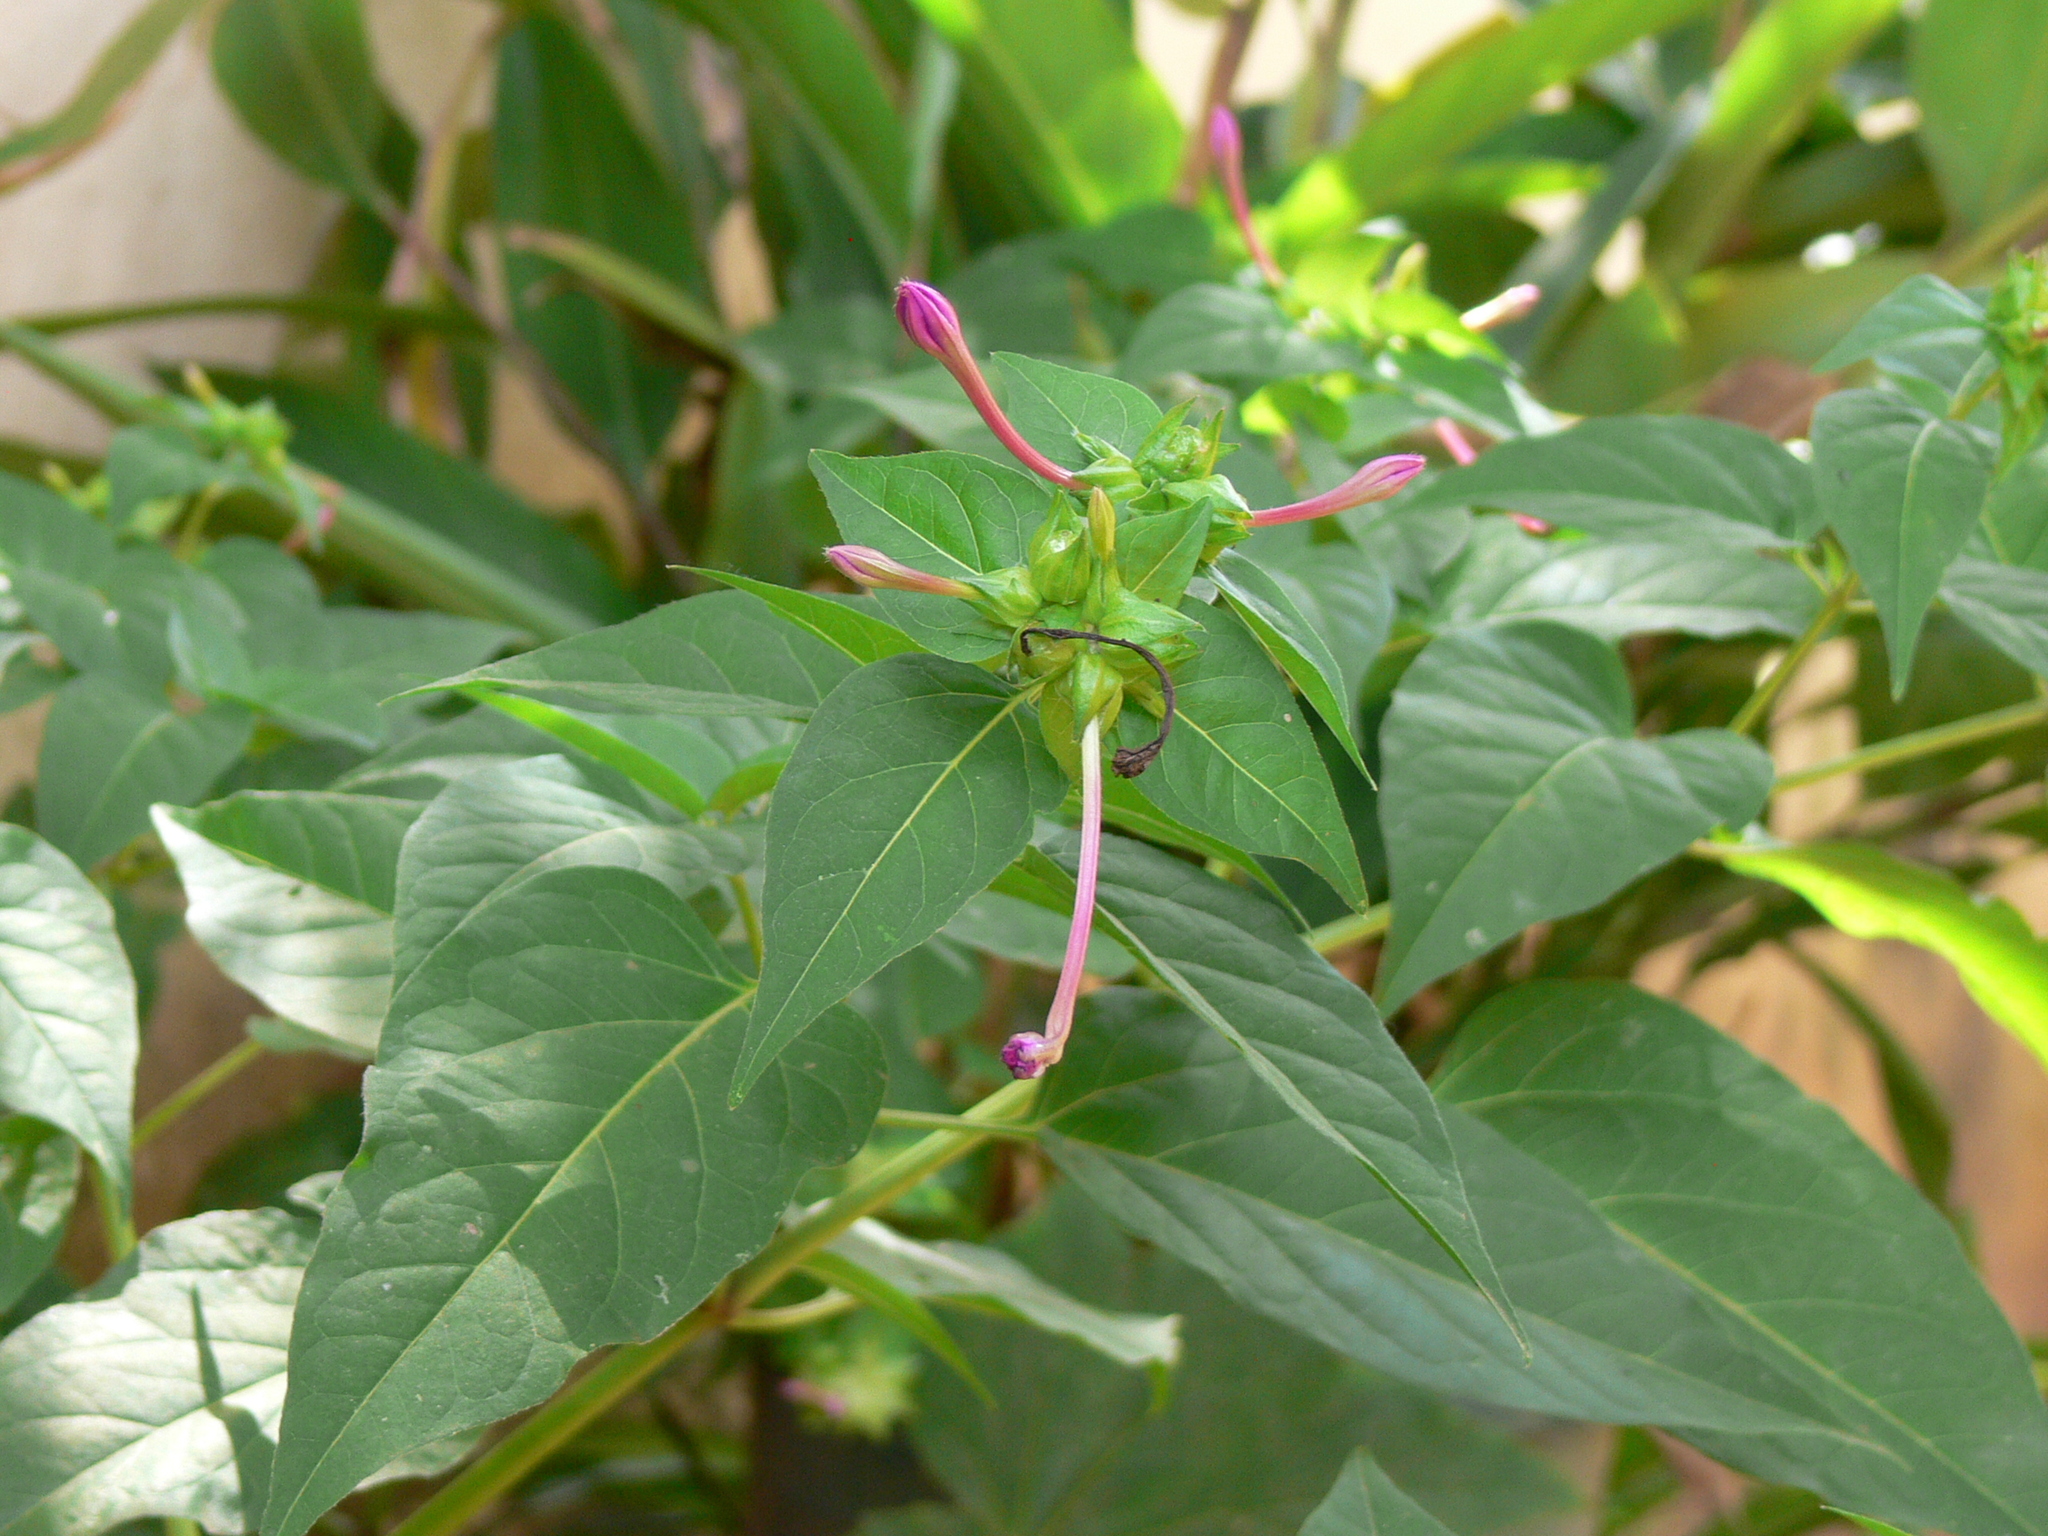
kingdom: Plantae
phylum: Tracheophyta
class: Magnoliopsida
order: Caryophyllales
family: Nyctaginaceae
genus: Mirabilis
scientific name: Mirabilis jalapa
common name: Marvel-of-peru
